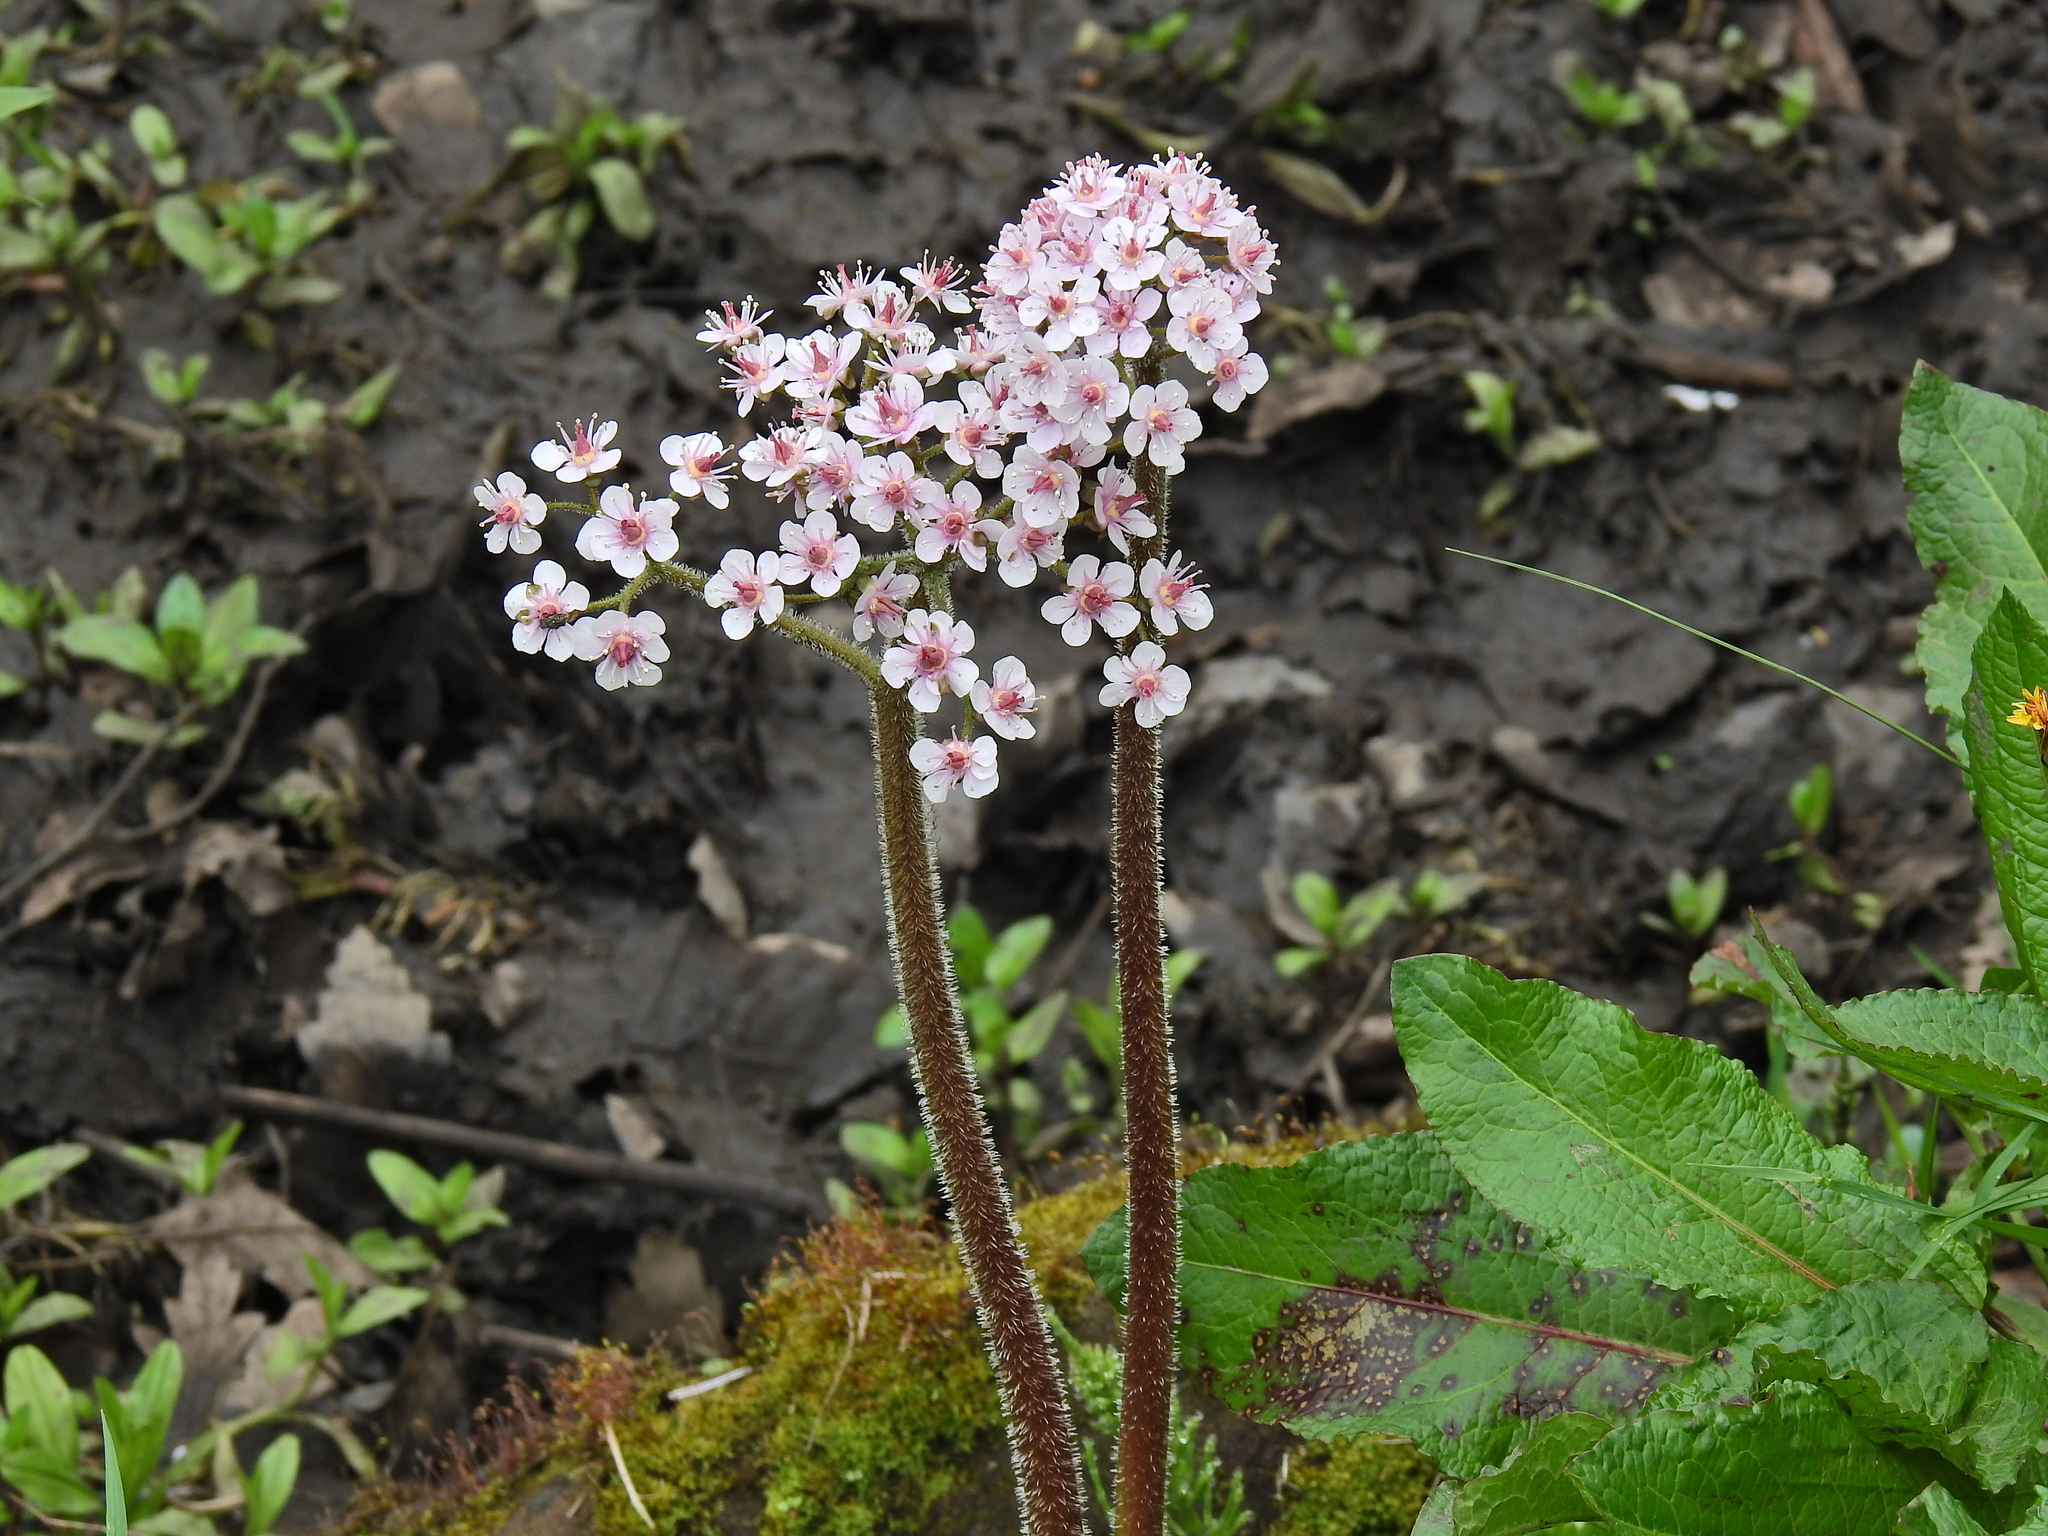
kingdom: Plantae
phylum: Tracheophyta
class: Magnoliopsida
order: Saxifragales
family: Saxifragaceae
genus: Darmera
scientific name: Darmera peltata
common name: Indian-rhubarb
